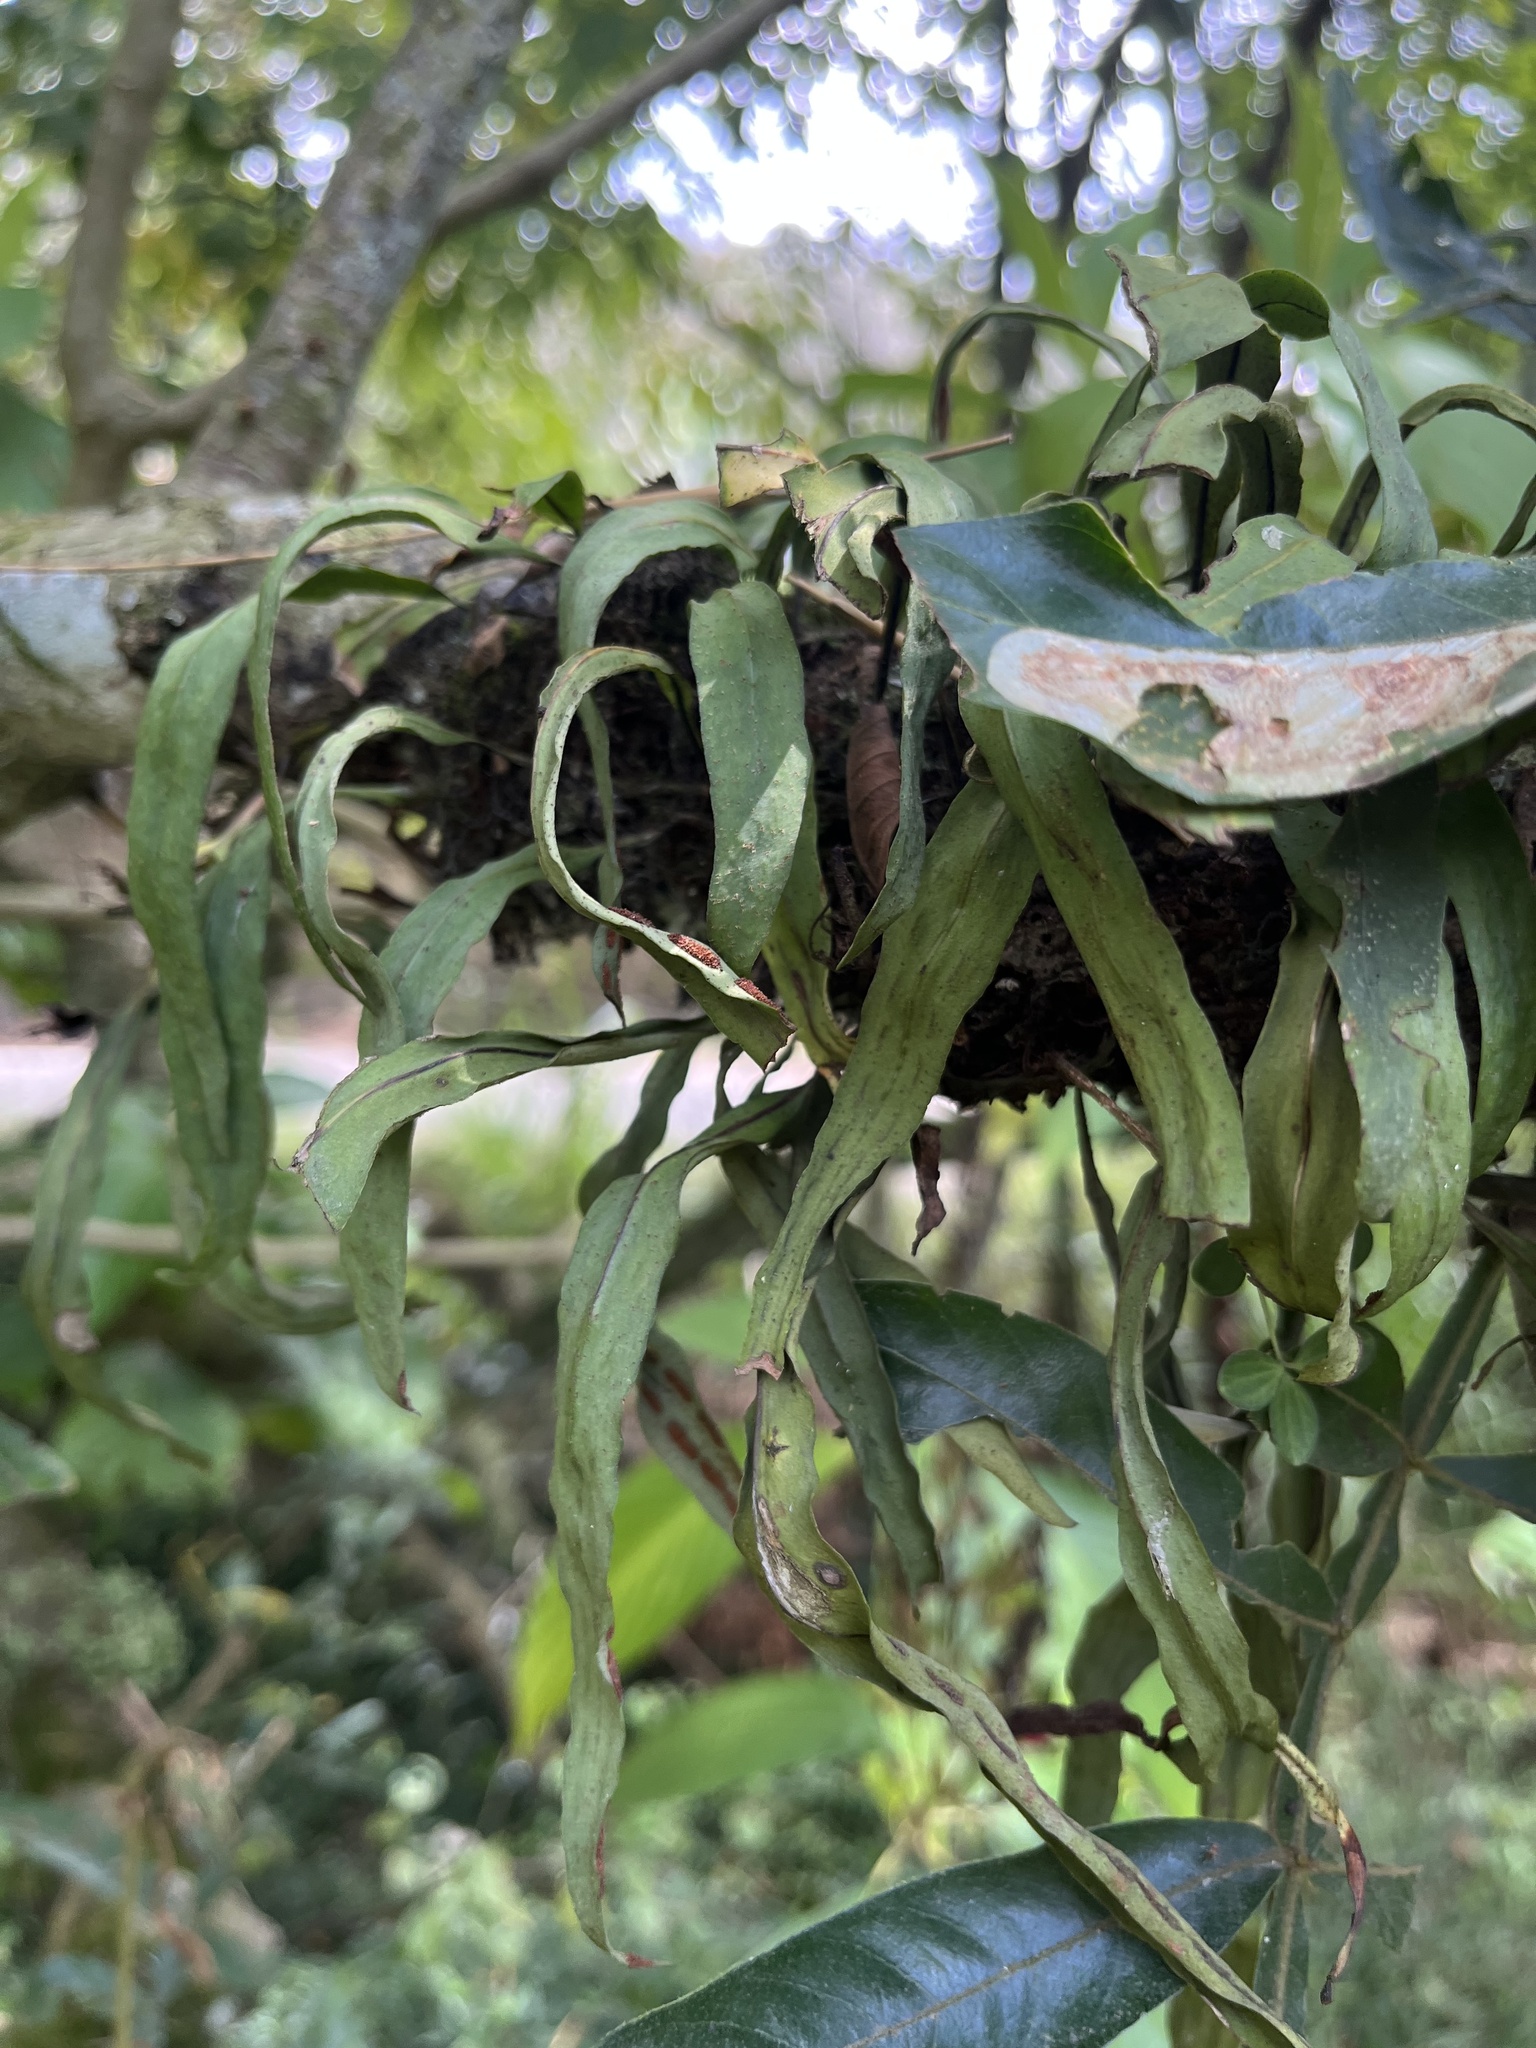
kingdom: Plantae
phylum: Tracheophyta
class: Polypodiopsida
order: Polypodiales
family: Polypodiaceae
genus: Pleopeltis
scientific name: Pleopeltis astrolepis
